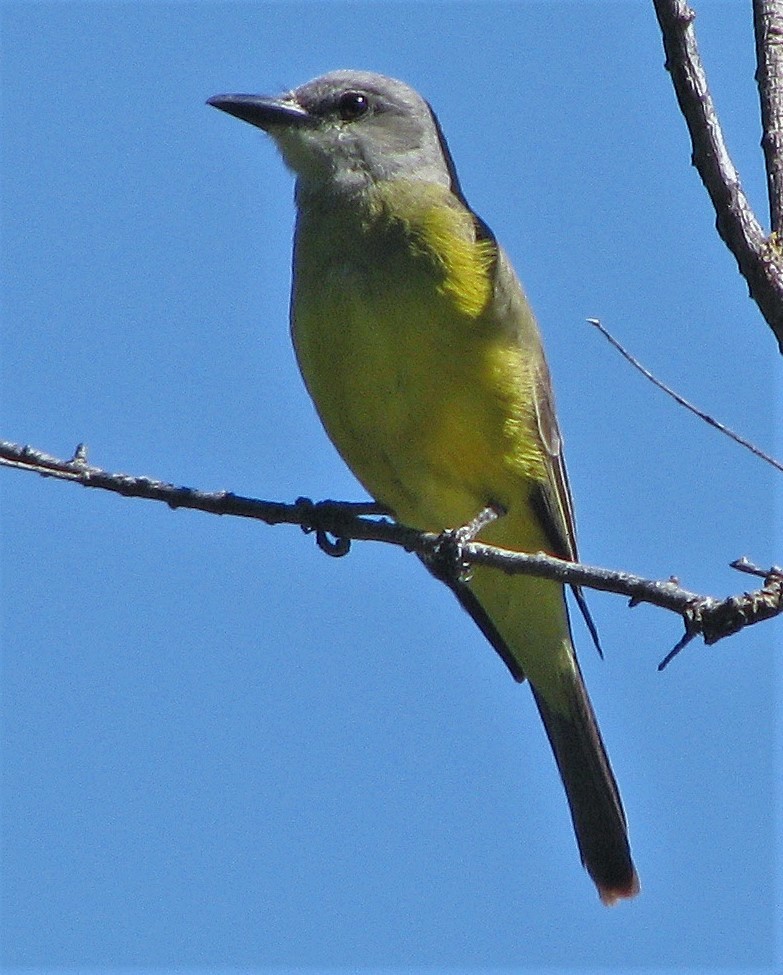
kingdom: Animalia
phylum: Chordata
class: Aves
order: Passeriformes
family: Tyrannidae
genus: Tyrannus
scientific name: Tyrannus melancholicus
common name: Tropical kingbird
